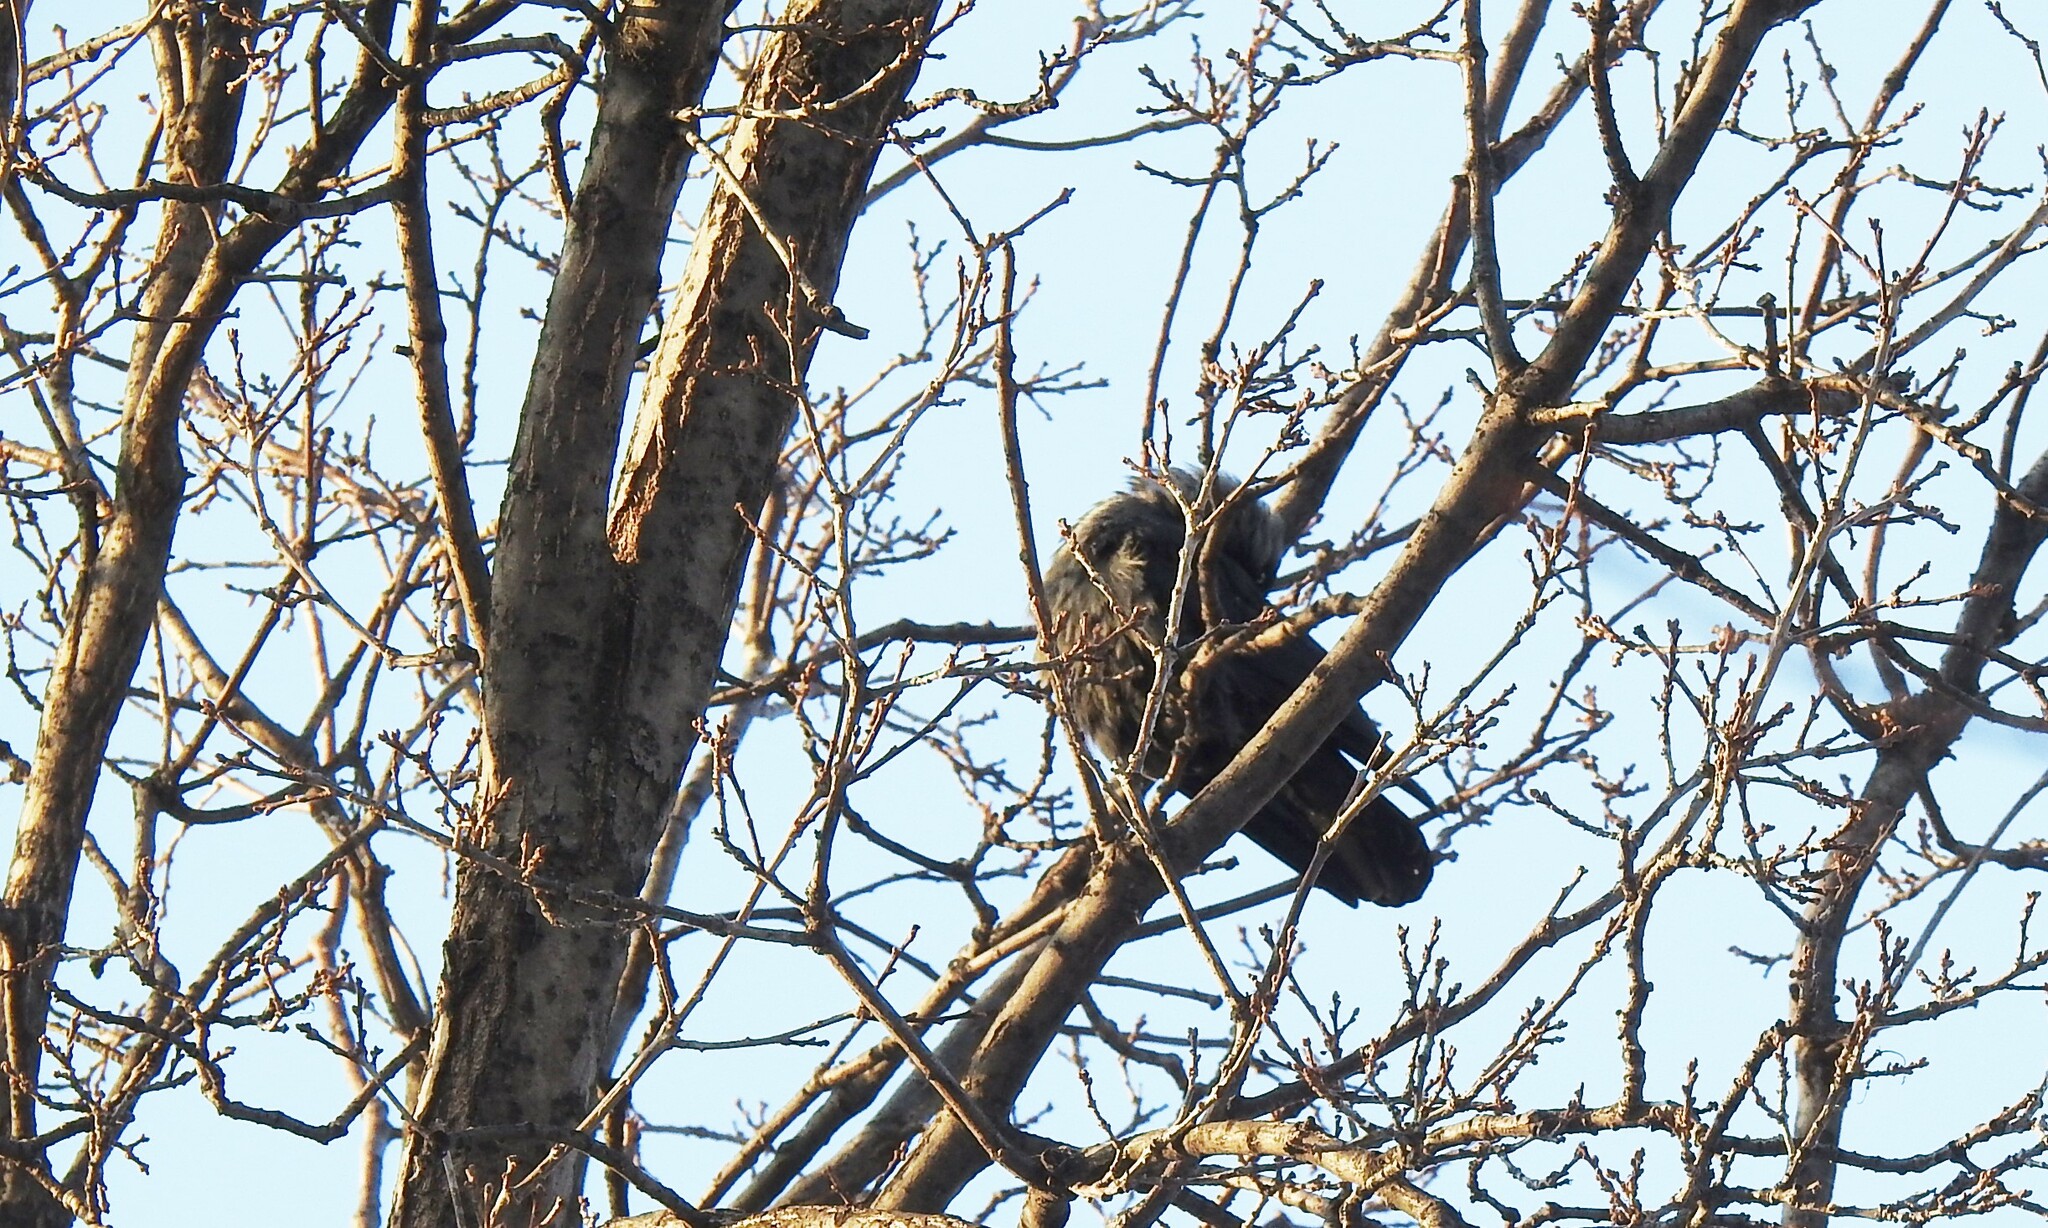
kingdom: Animalia
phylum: Chordata
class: Aves
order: Passeriformes
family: Corvidae
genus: Coloeus
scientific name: Coloeus monedula
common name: Western jackdaw
